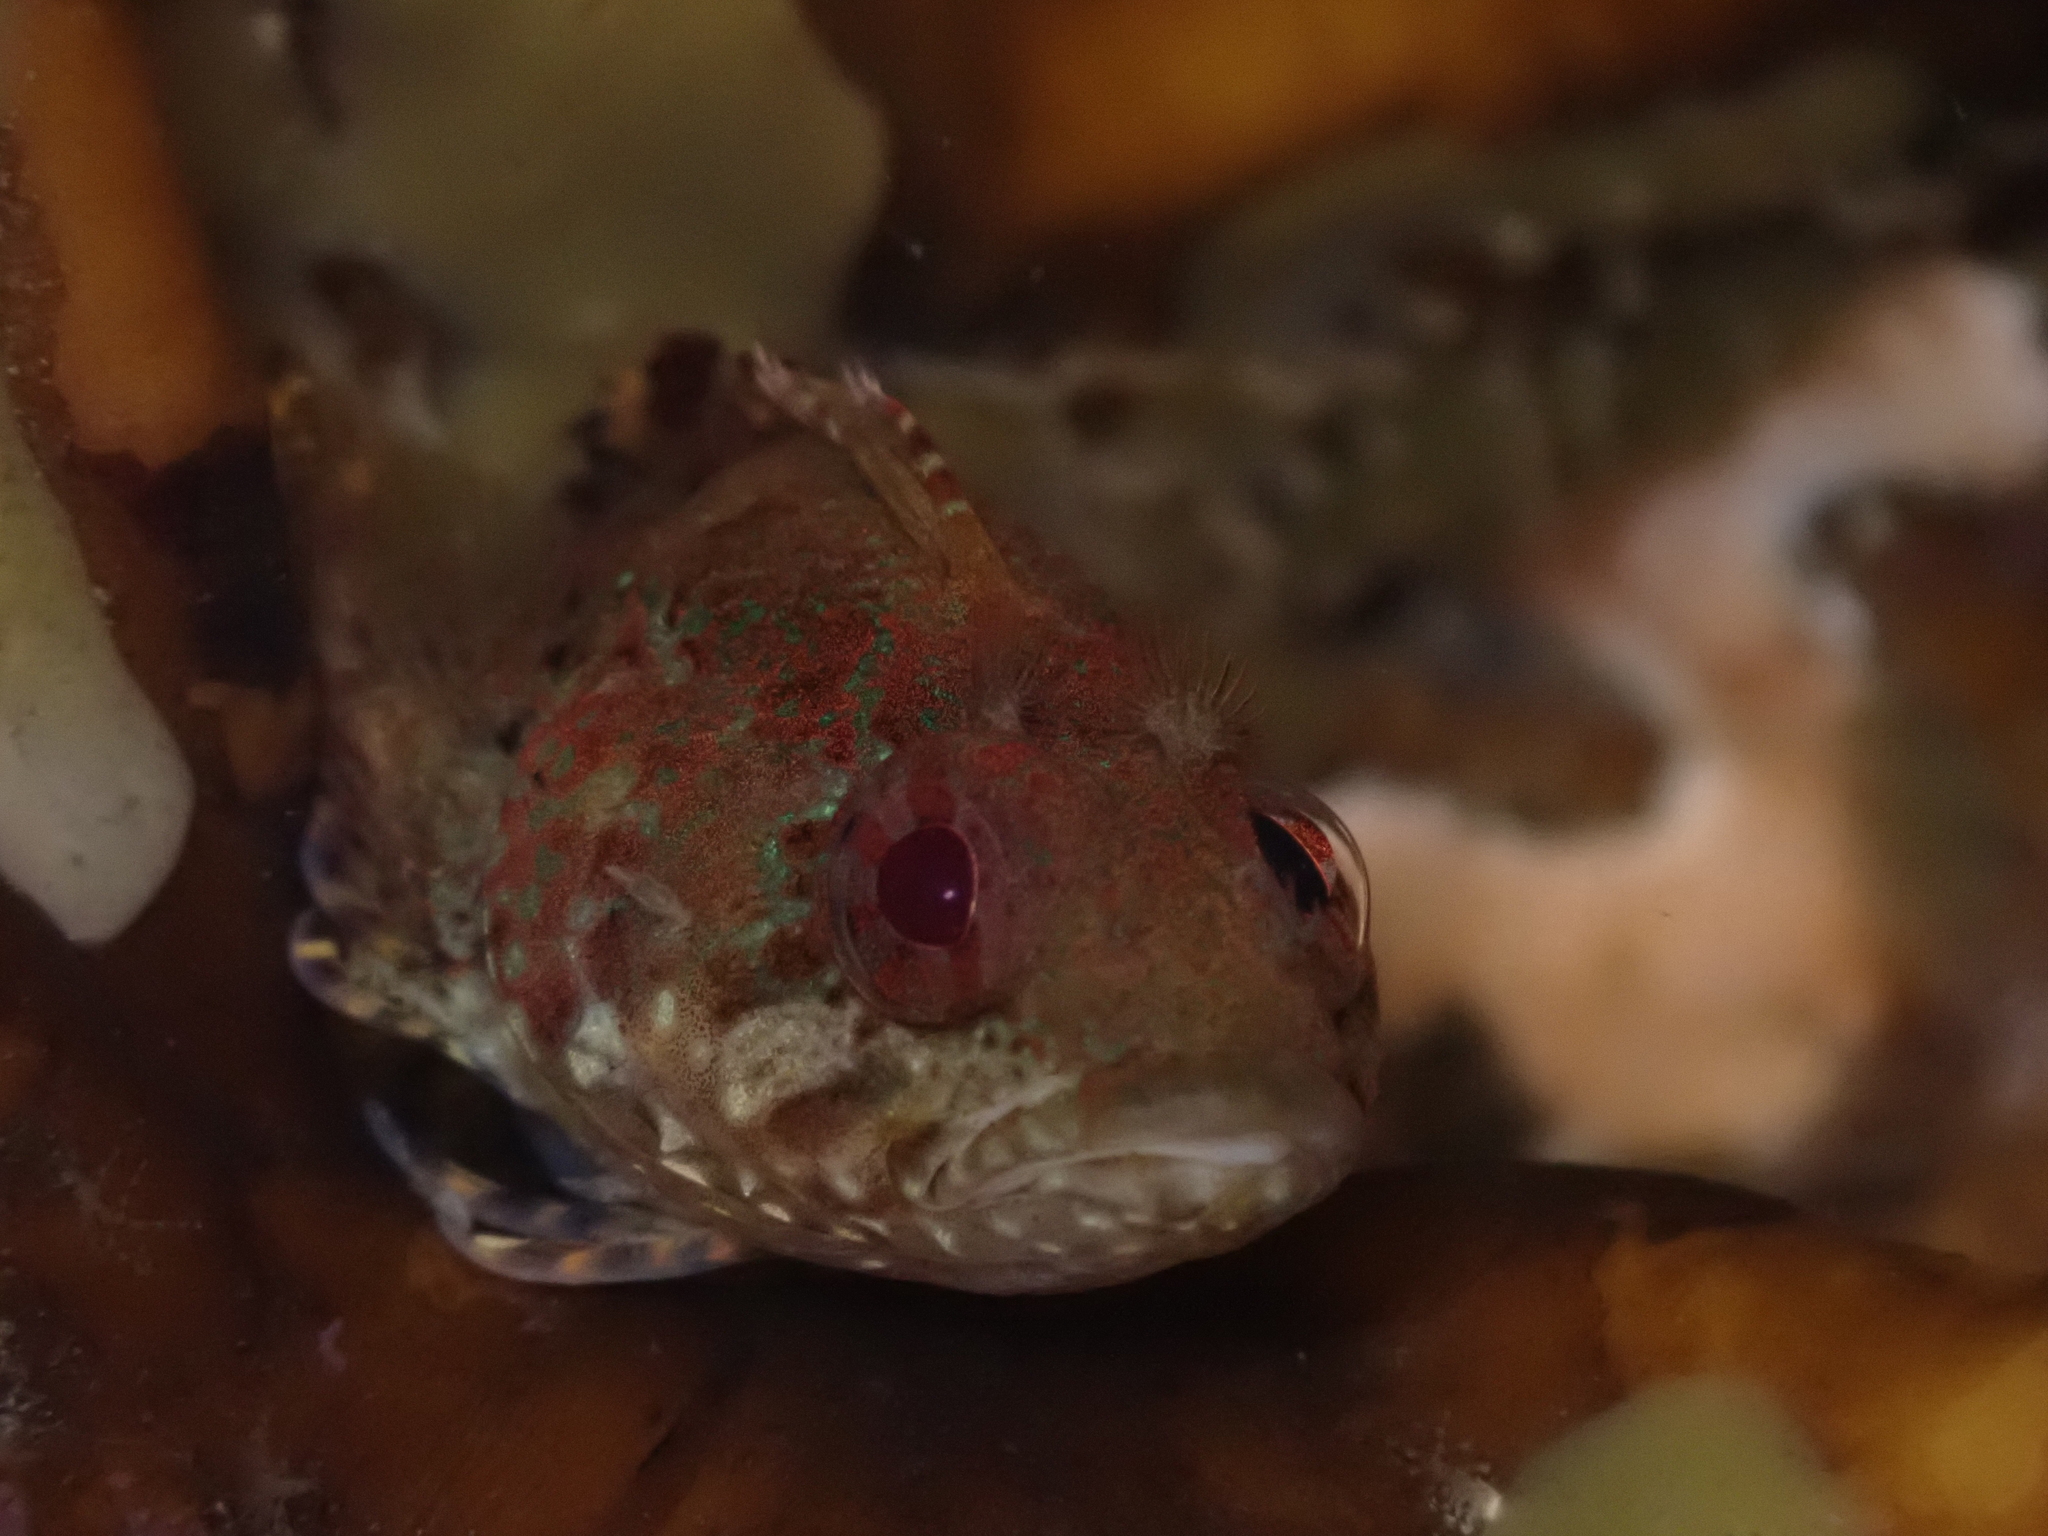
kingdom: Animalia
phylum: Chordata
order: Perciformes
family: Tripterygiidae
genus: Gilloblennius
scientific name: Gilloblennius abditus
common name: Obscure triplefin
